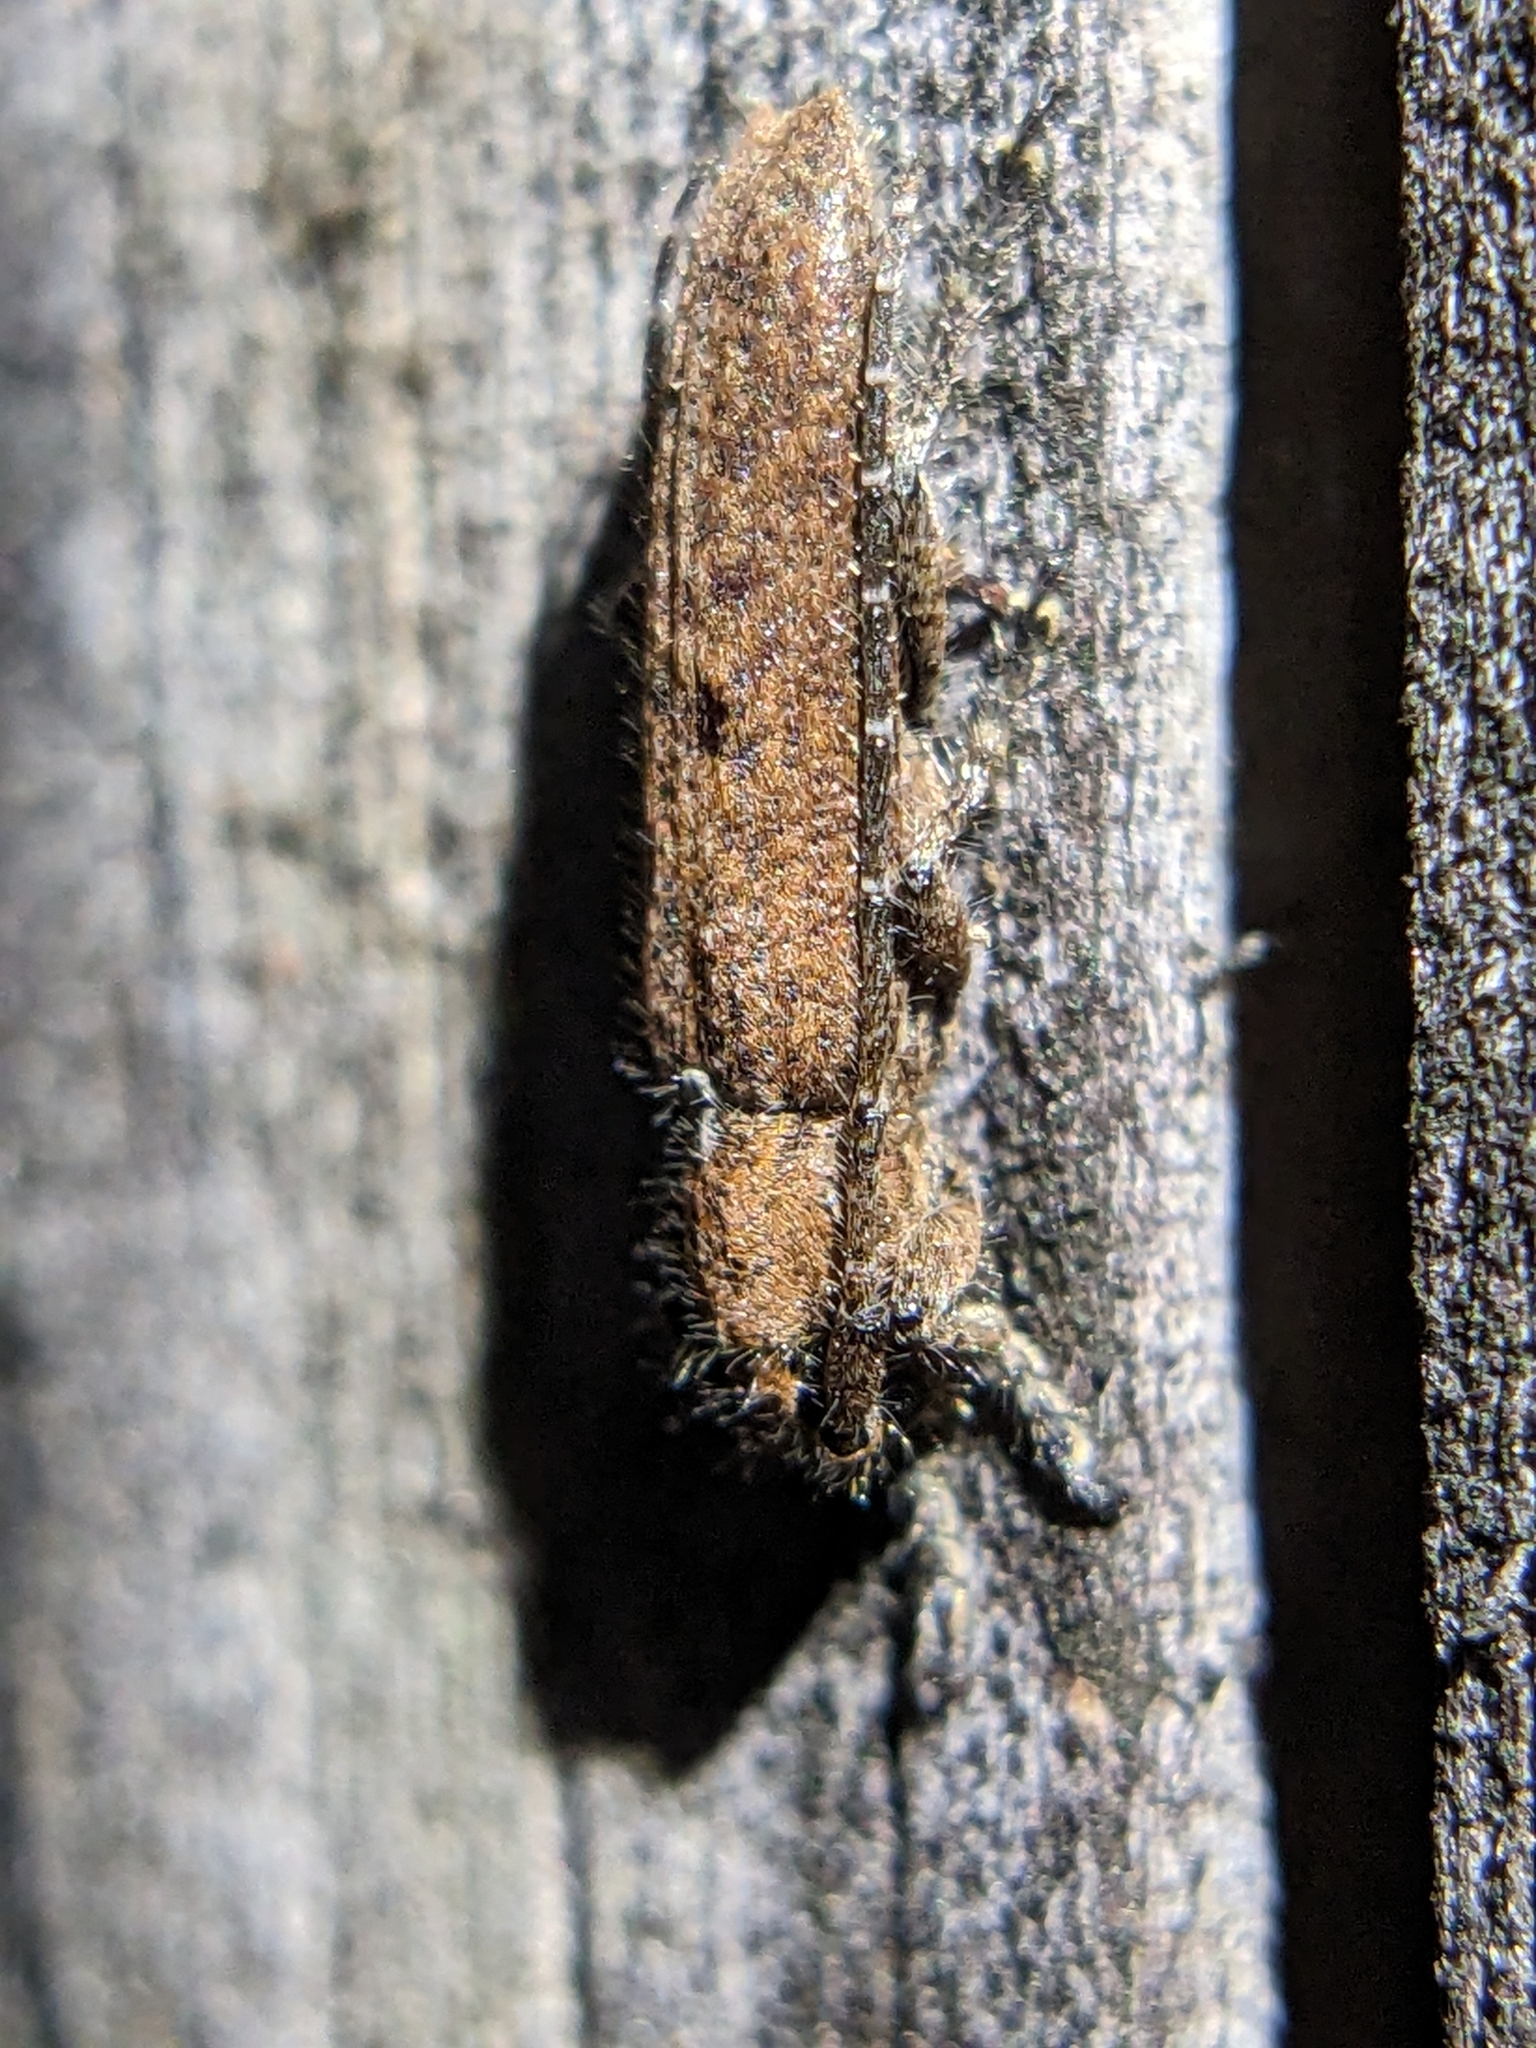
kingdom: Animalia
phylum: Arthropoda
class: Insecta
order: Coleoptera
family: Cerambycidae
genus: Ataxia
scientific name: Ataxia crypta
